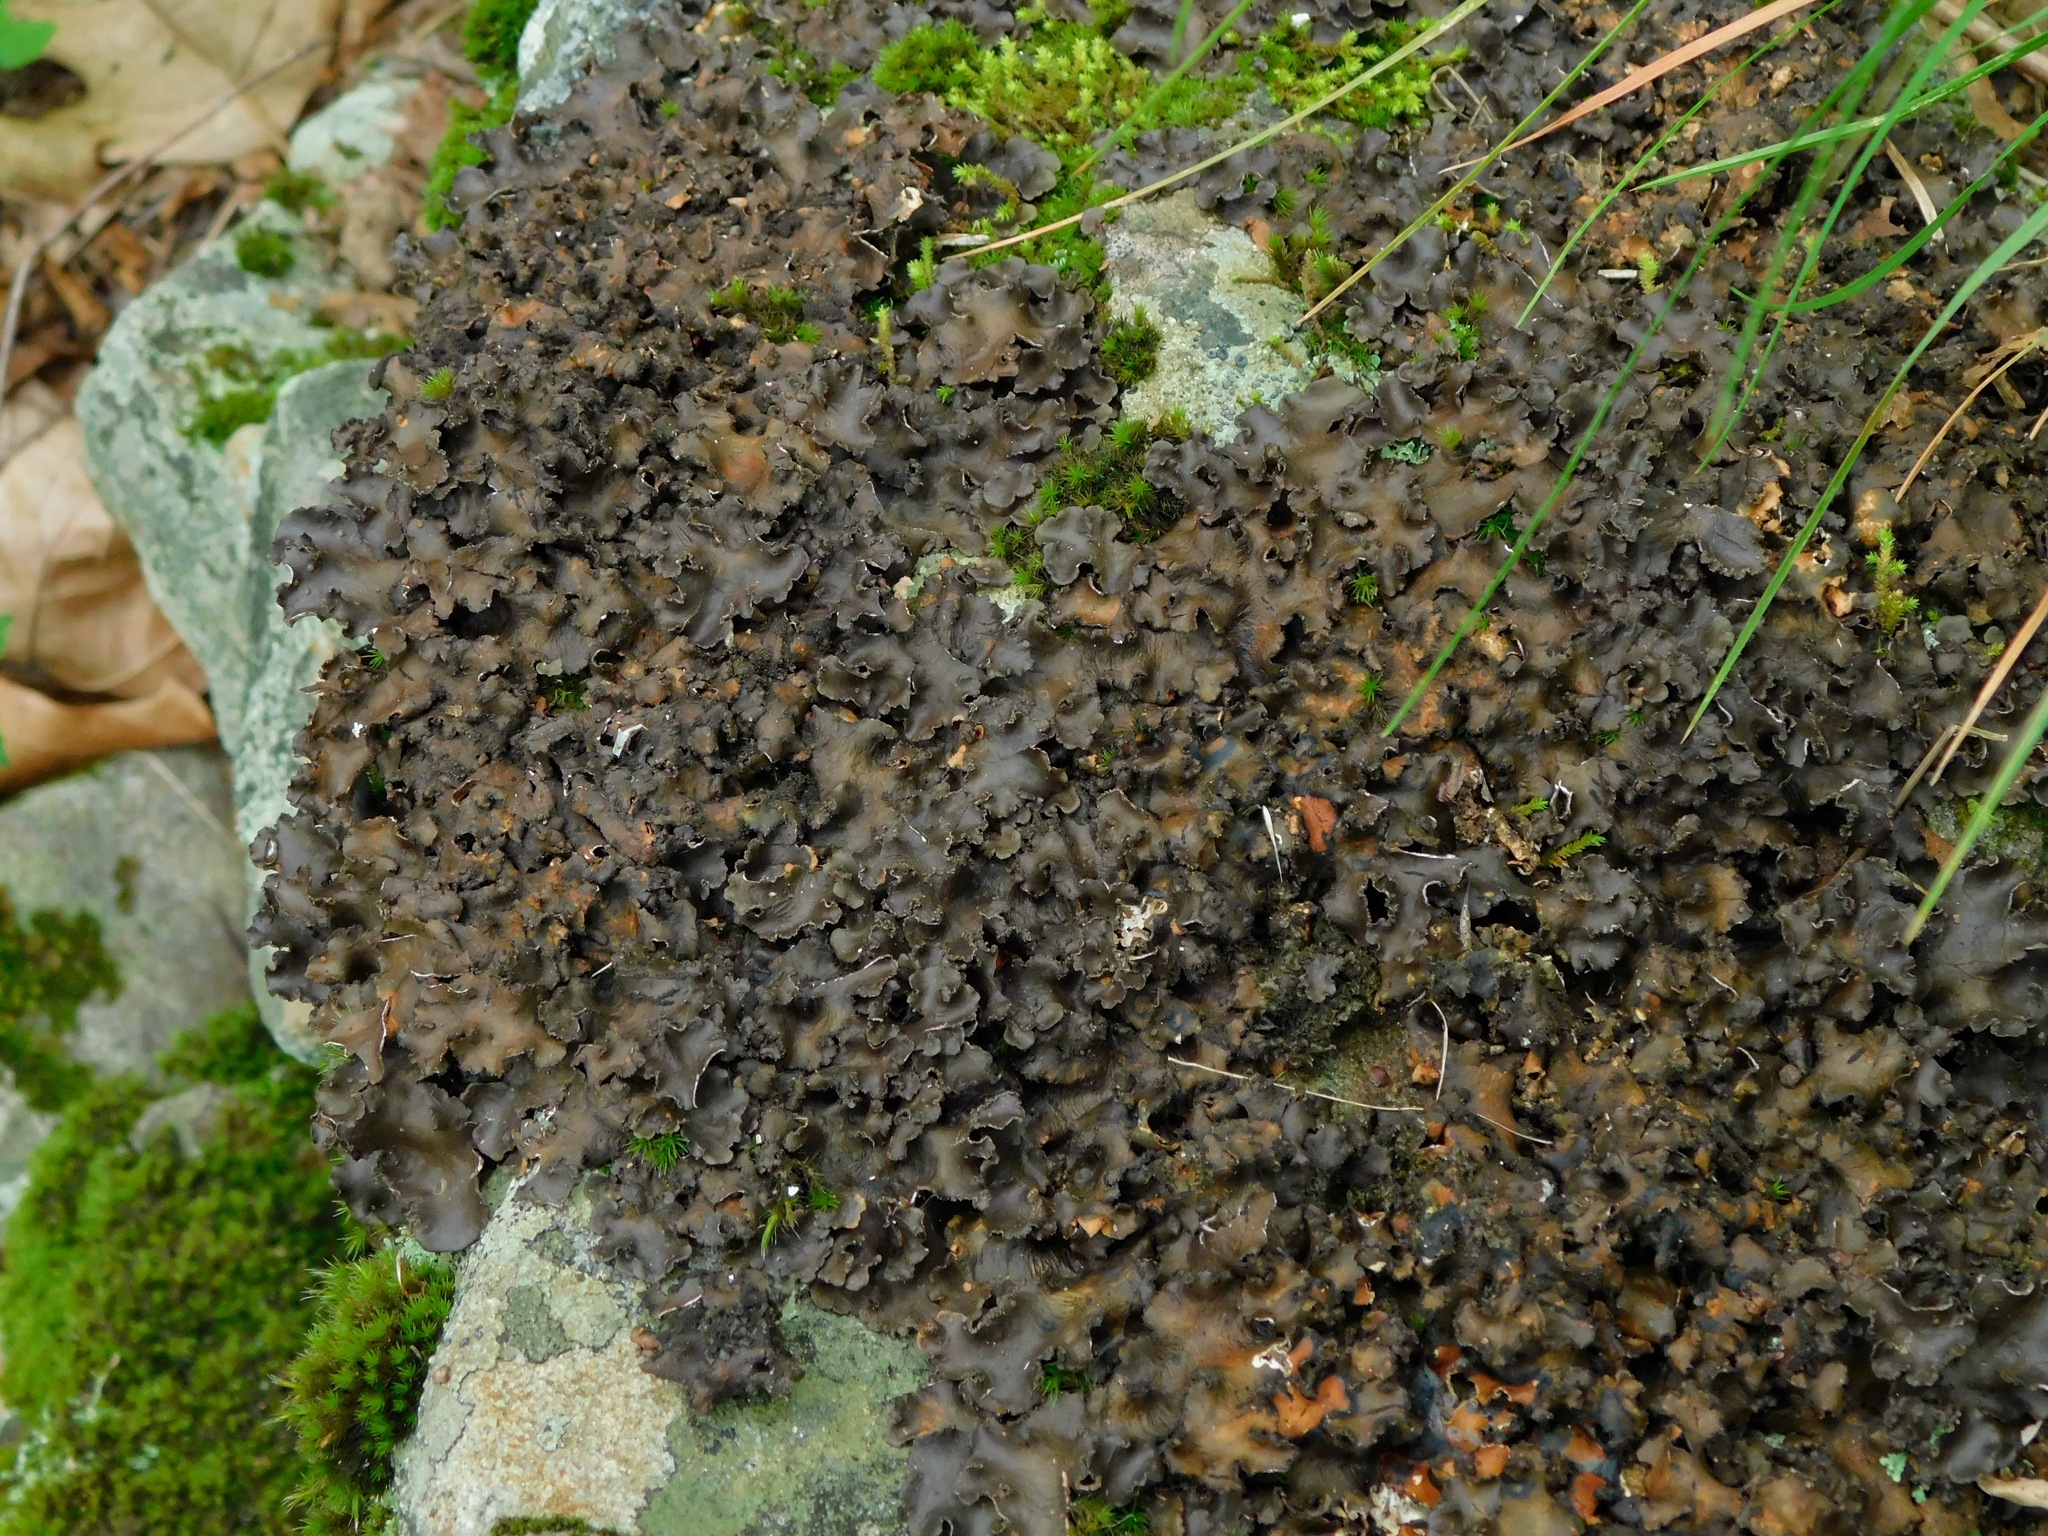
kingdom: Fungi
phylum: Ascomycota
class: Lecanoromycetes
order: Peltigerales
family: Lobariaceae
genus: Sticta
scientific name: Sticta beauvoisii
